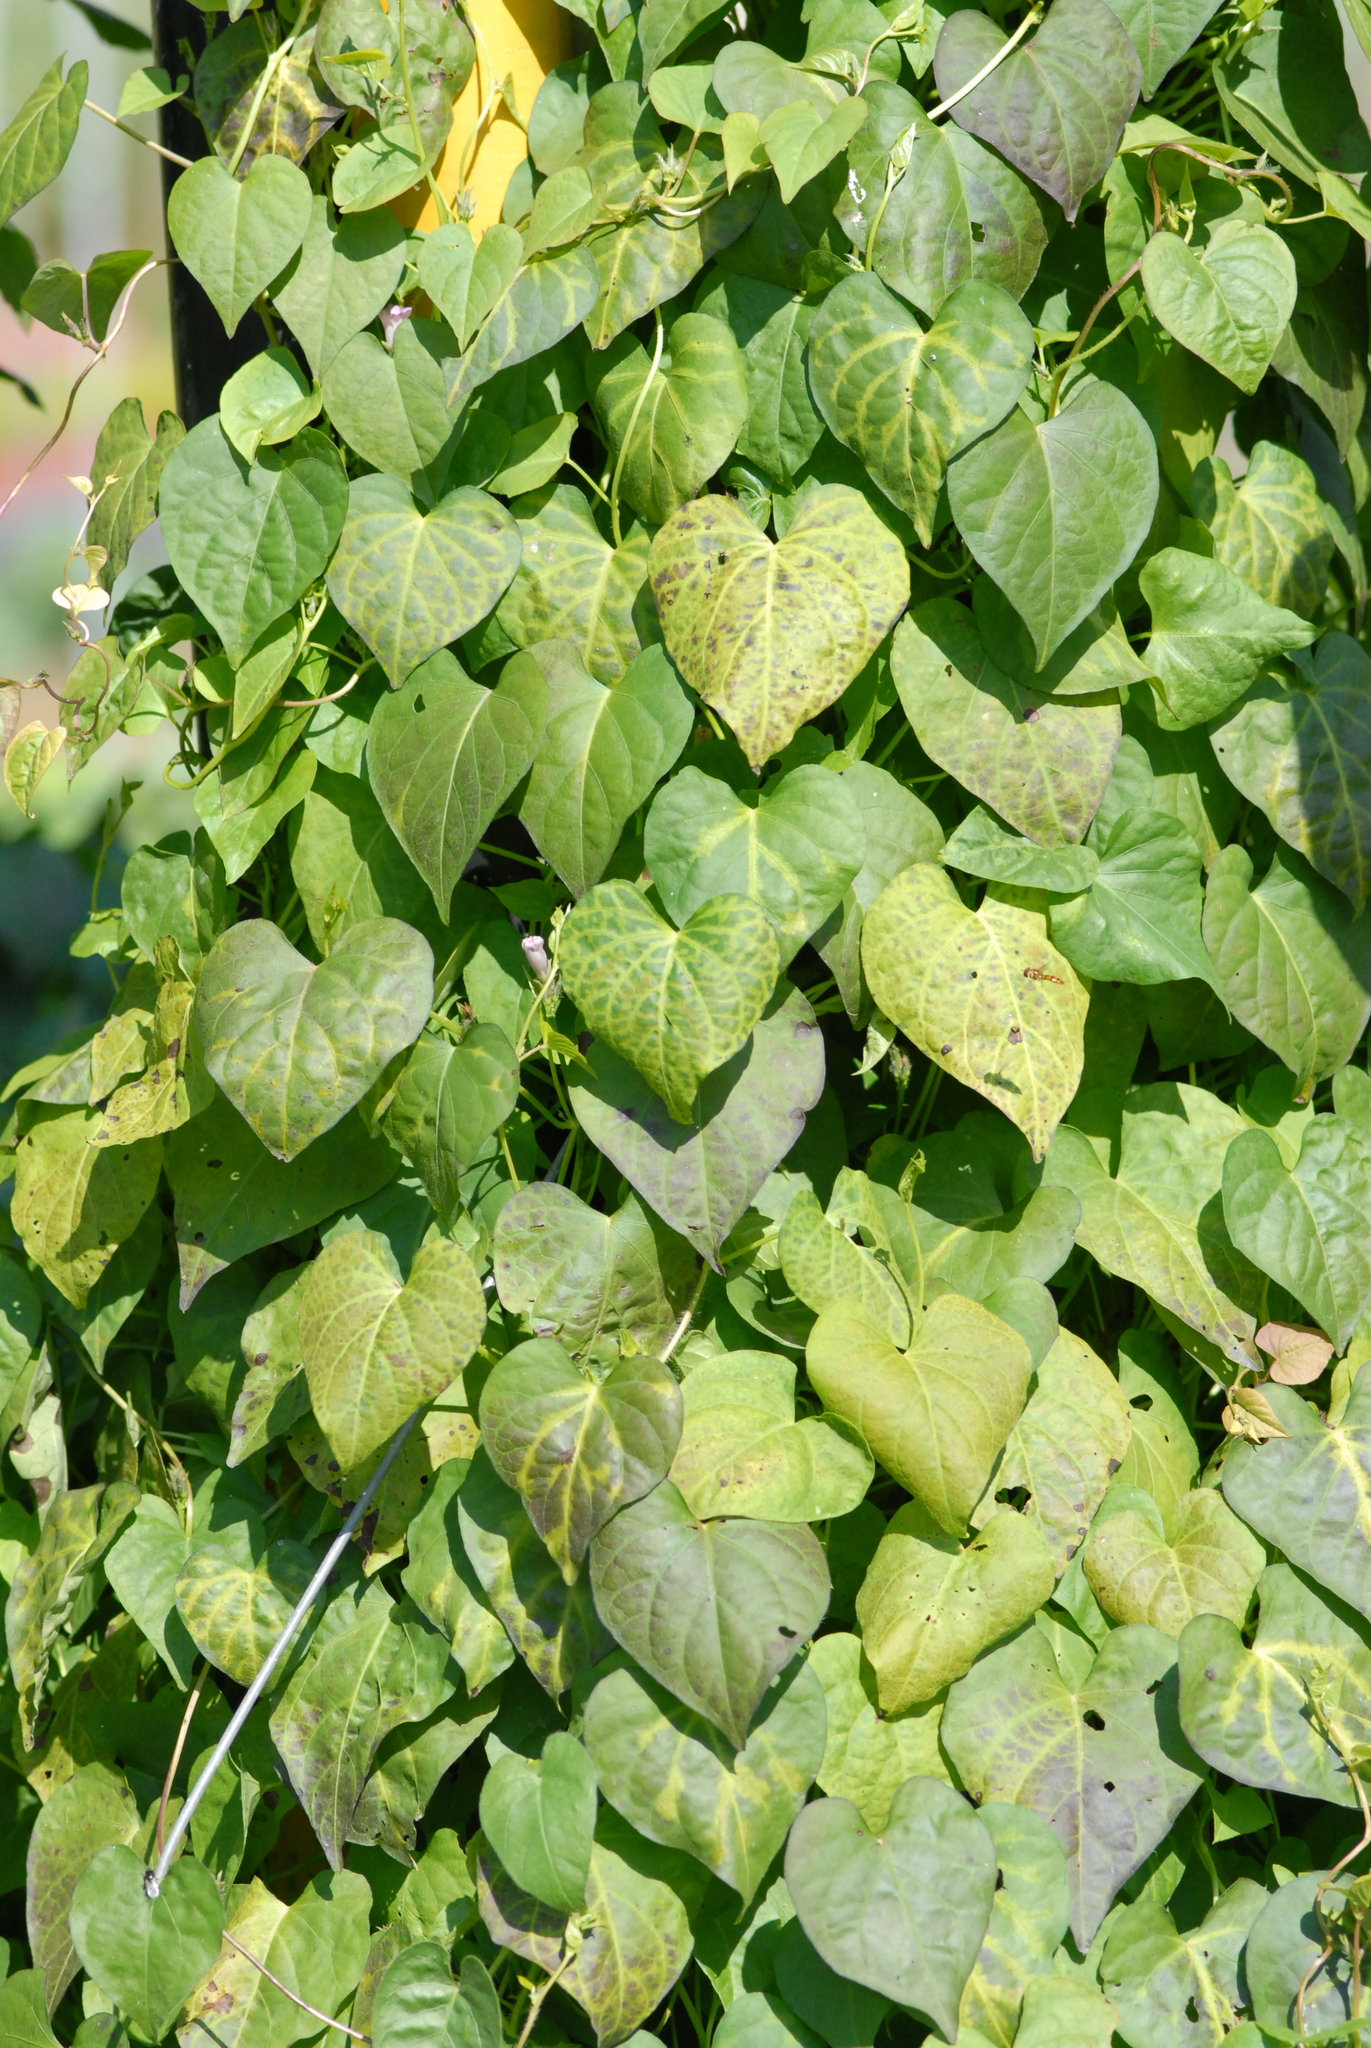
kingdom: Plantae
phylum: Tracheophyta
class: Magnoliopsida
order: Solanales
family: Convolvulaceae
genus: Ipomoea
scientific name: Ipomoea triloba
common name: Little-bell
